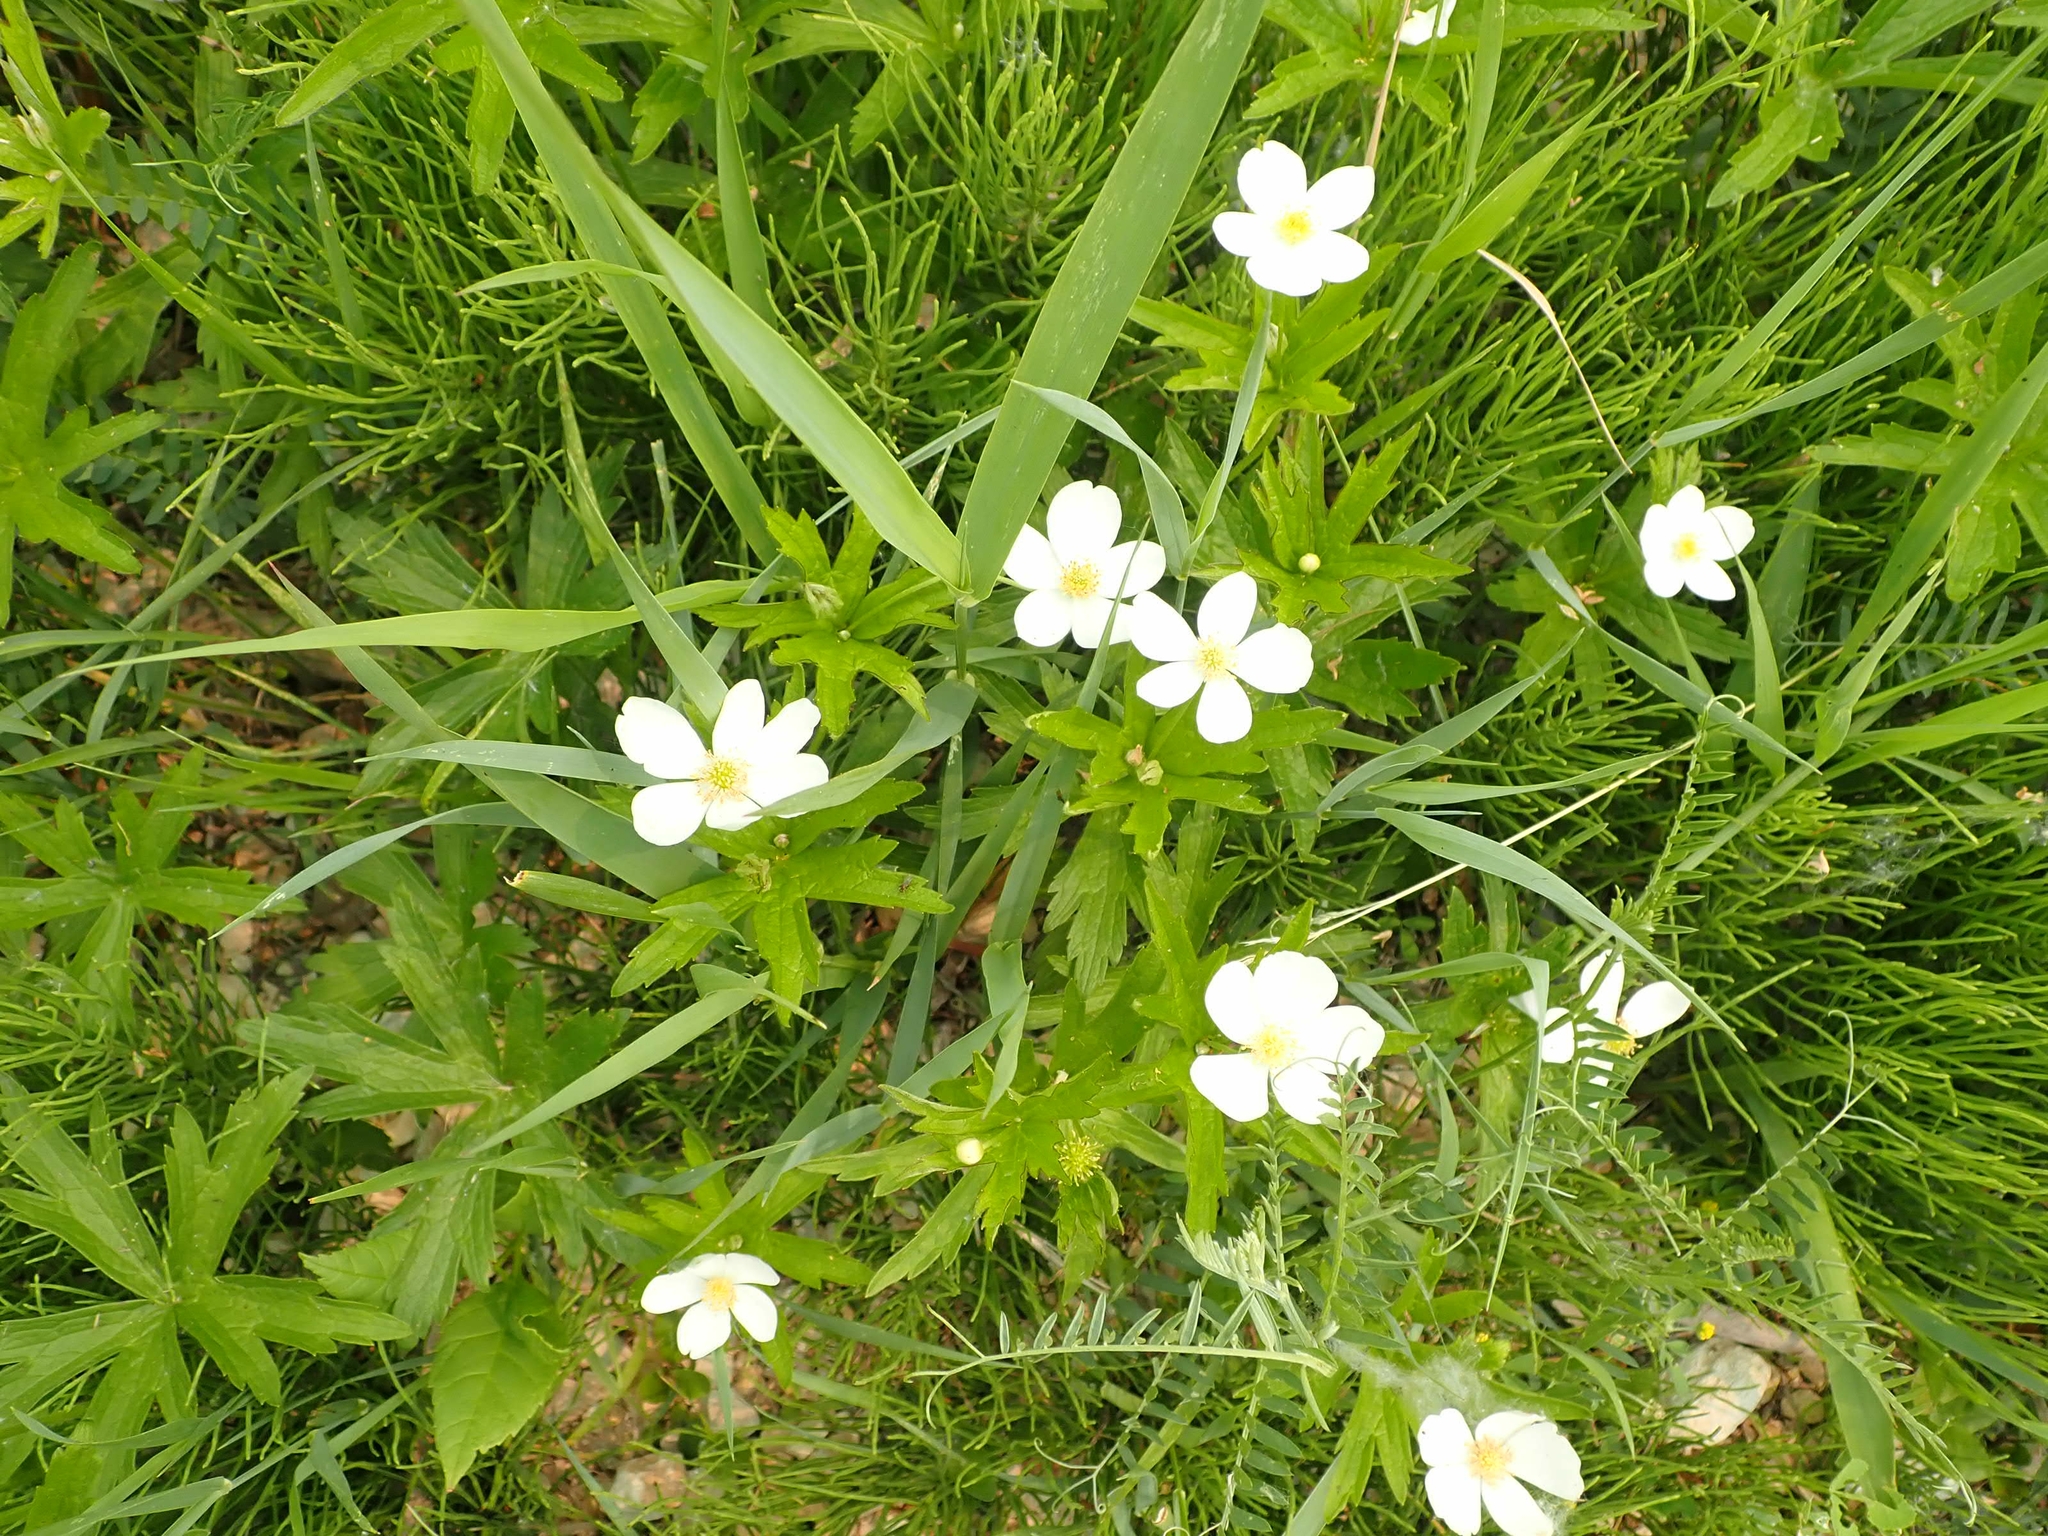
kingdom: Plantae
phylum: Tracheophyta
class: Magnoliopsida
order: Ranunculales
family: Ranunculaceae
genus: Anemonastrum
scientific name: Anemonastrum canadense
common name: Canada anemone
